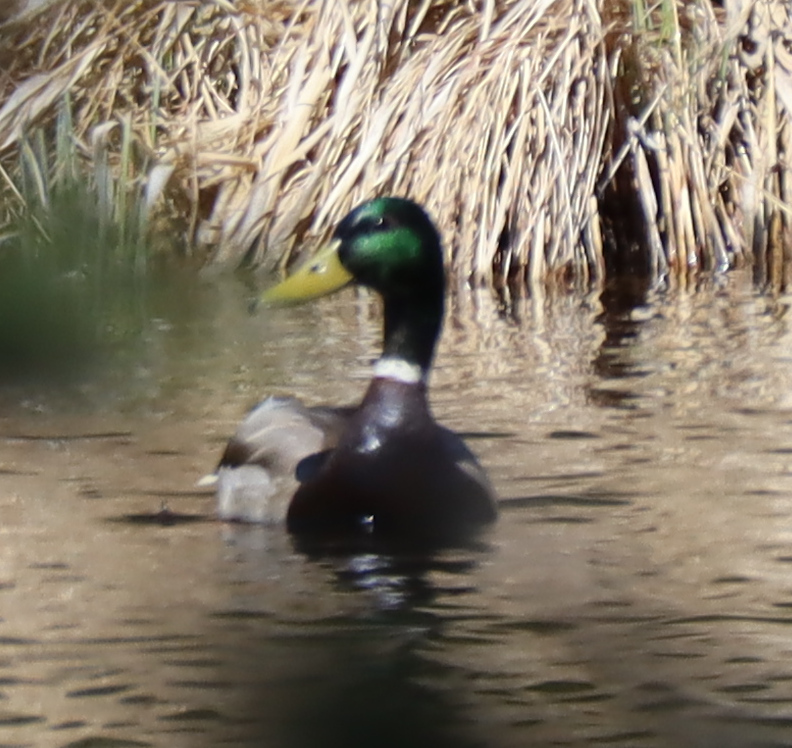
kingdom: Animalia
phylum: Chordata
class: Aves
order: Anseriformes
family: Anatidae
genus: Anas
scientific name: Anas platyrhynchos
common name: Mallard
